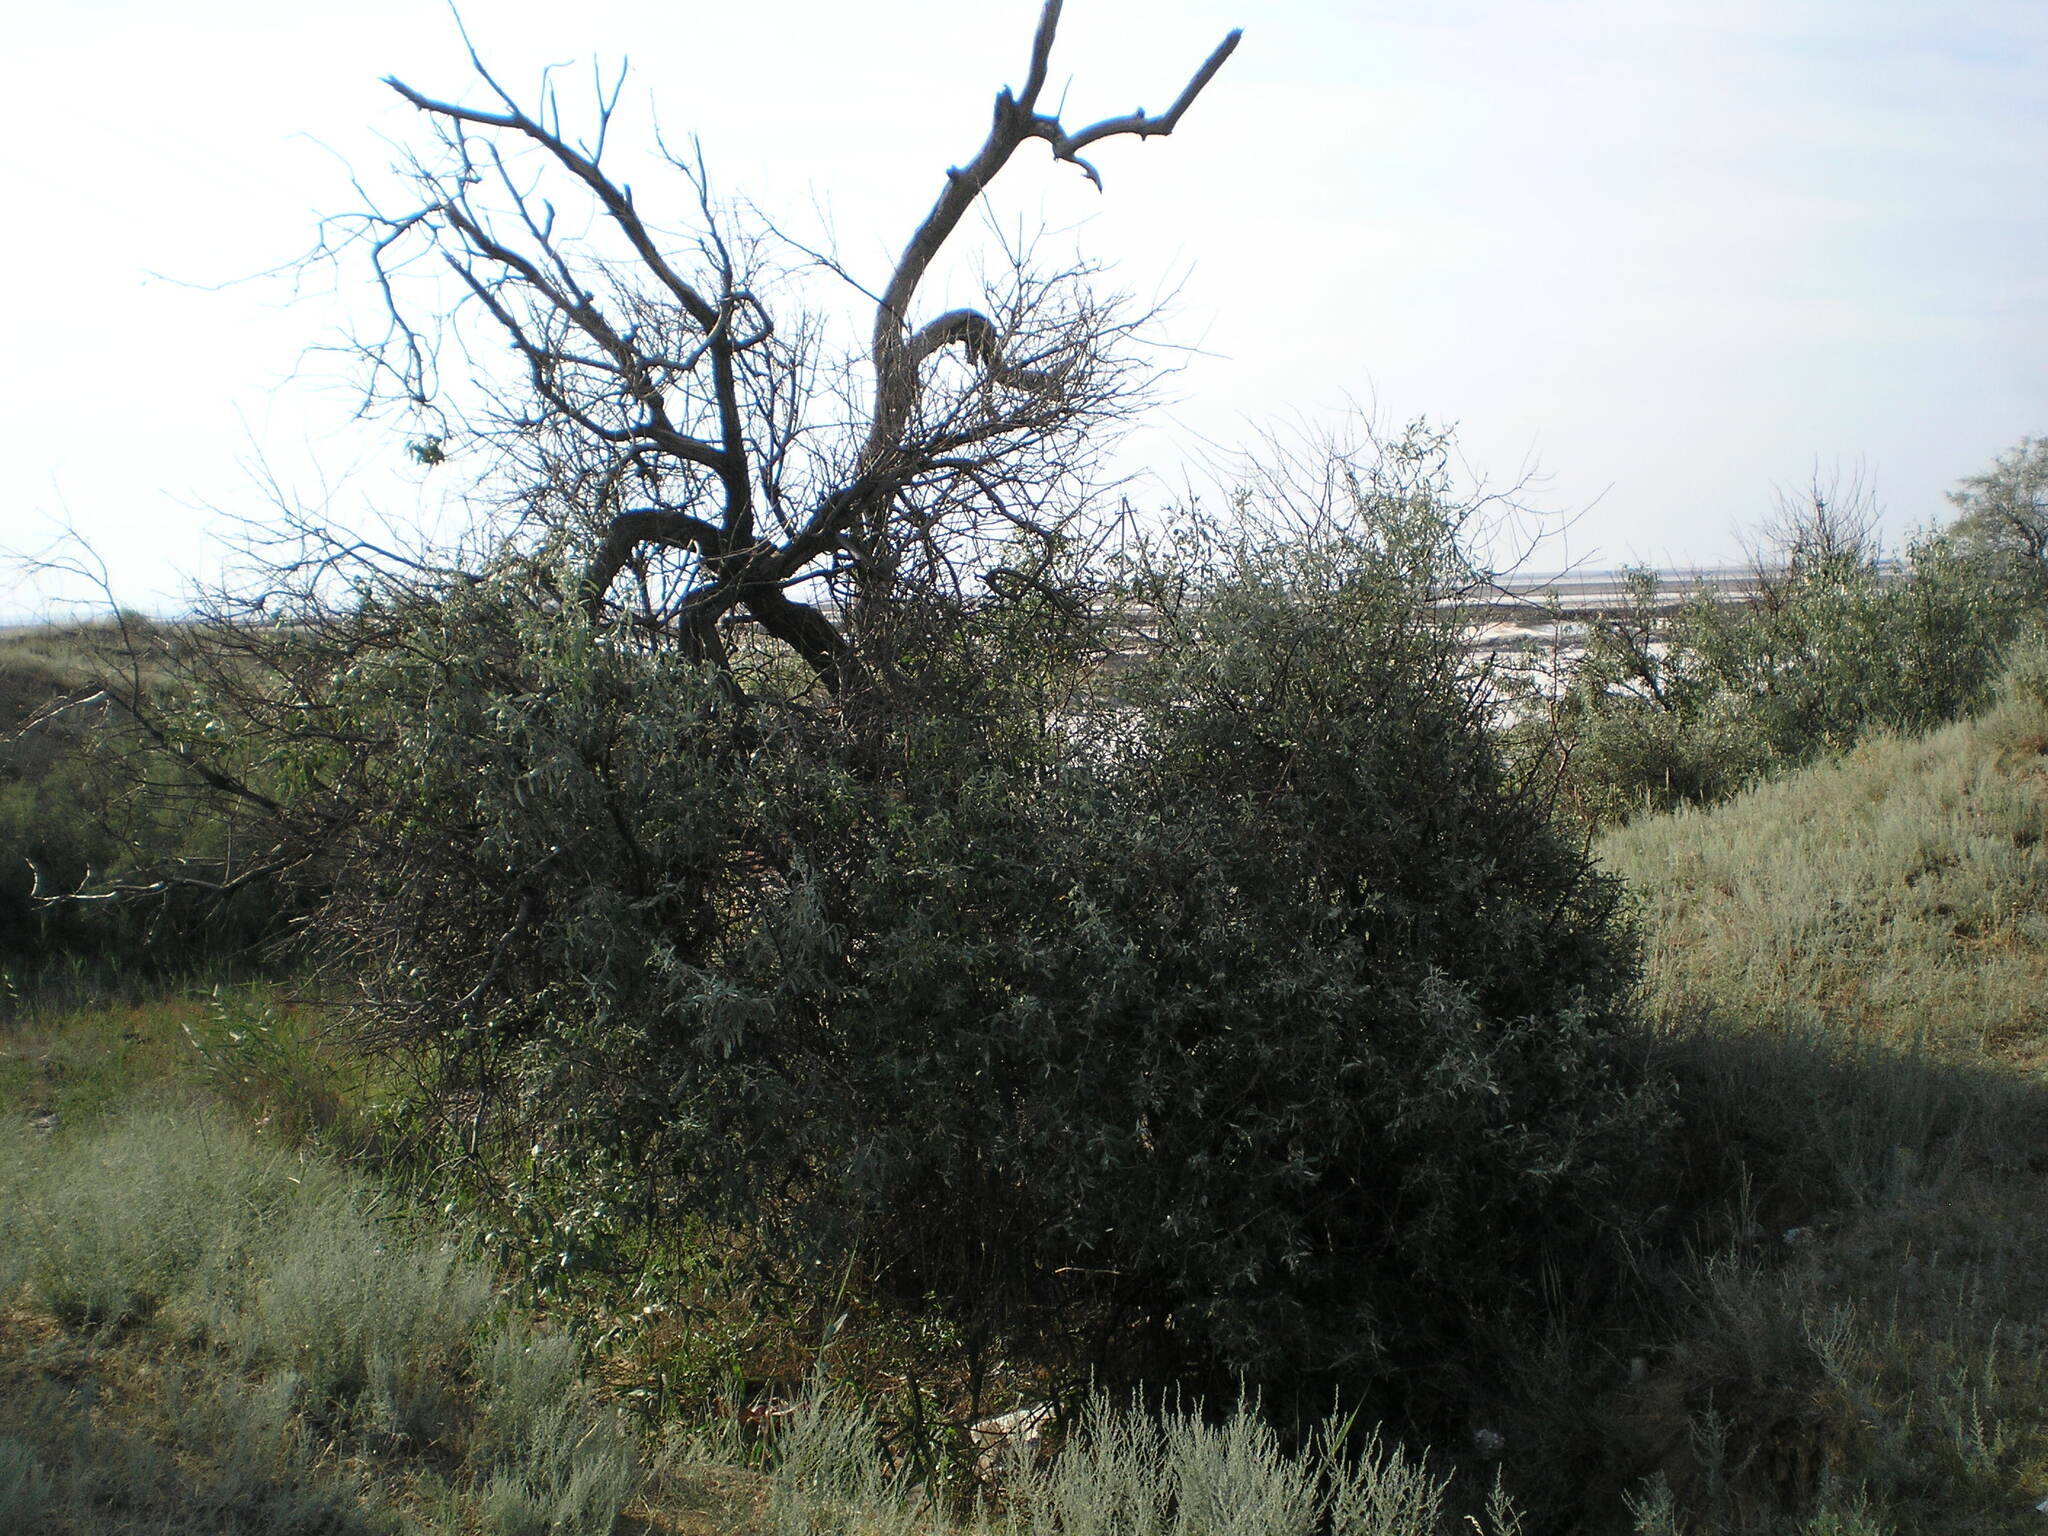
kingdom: Plantae
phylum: Tracheophyta
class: Magnoliopsida
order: Rosales
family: Elaeagnaceae
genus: Elaeagnus
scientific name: Elaeagnus angustifolia
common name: Russian olive
